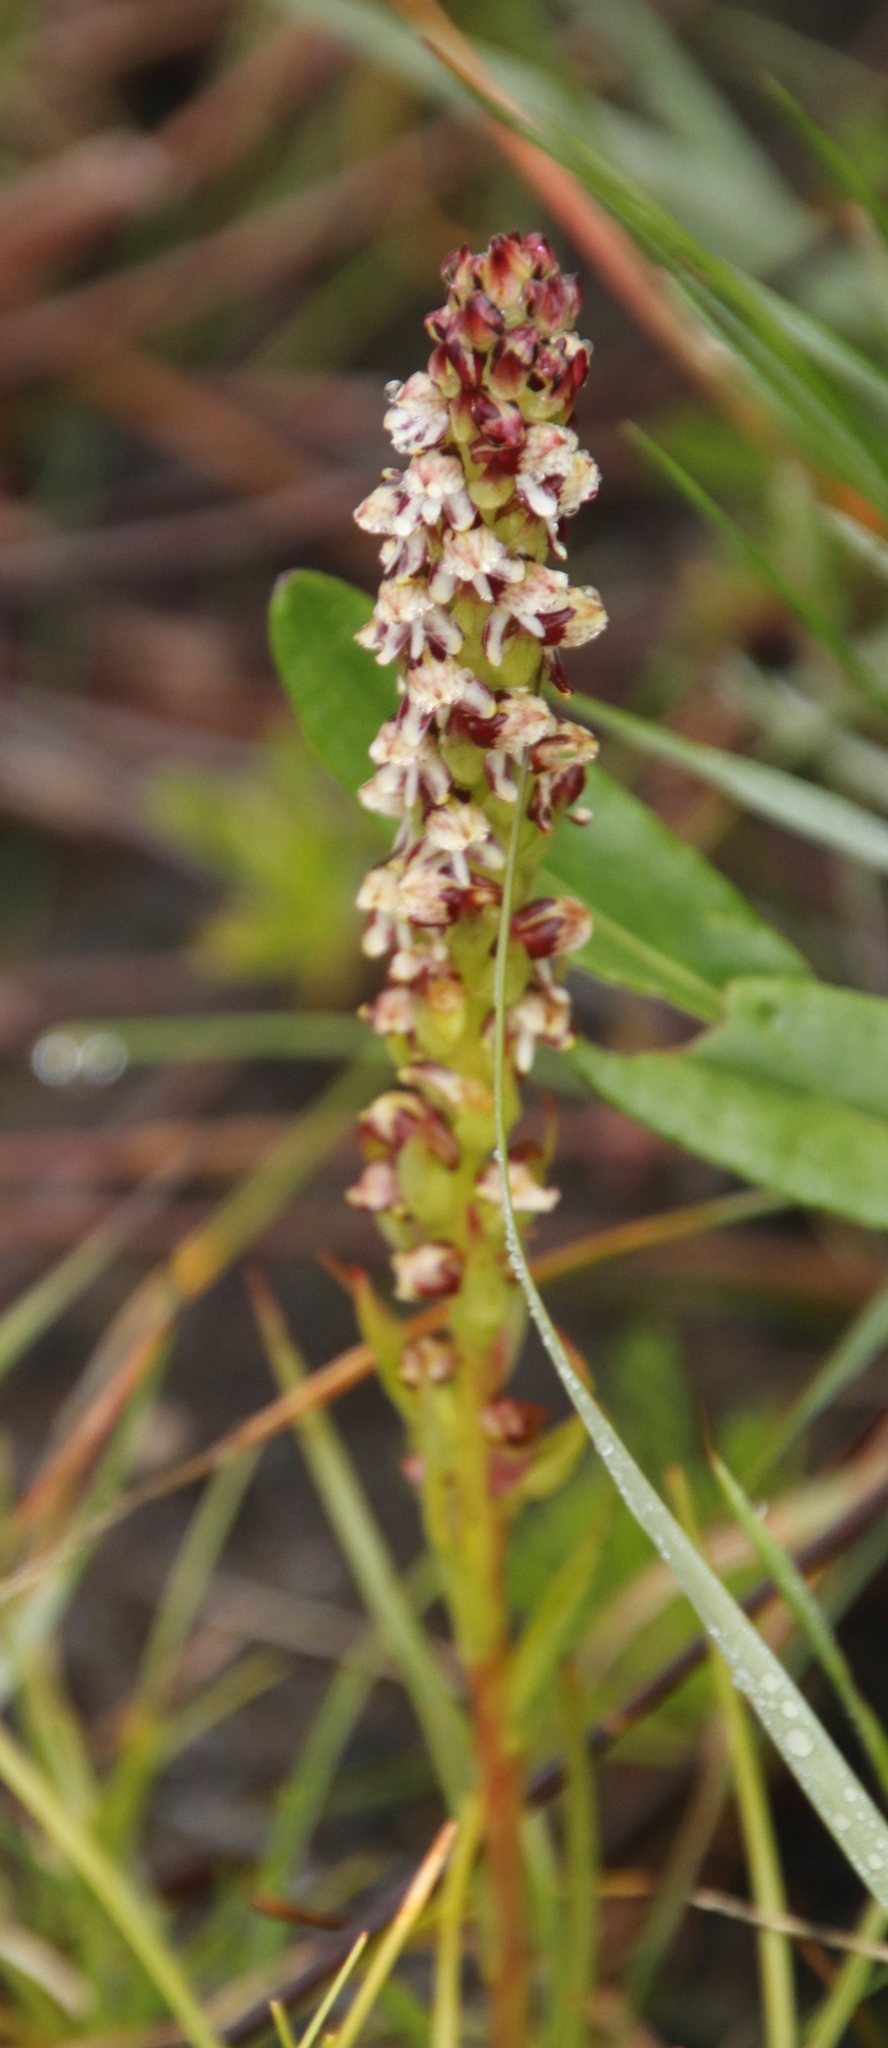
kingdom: Plantae
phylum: Tracheophyta
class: Liliopsida
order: Asparagales
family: Orchidaceae
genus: Disa
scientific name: Disa obtusa
